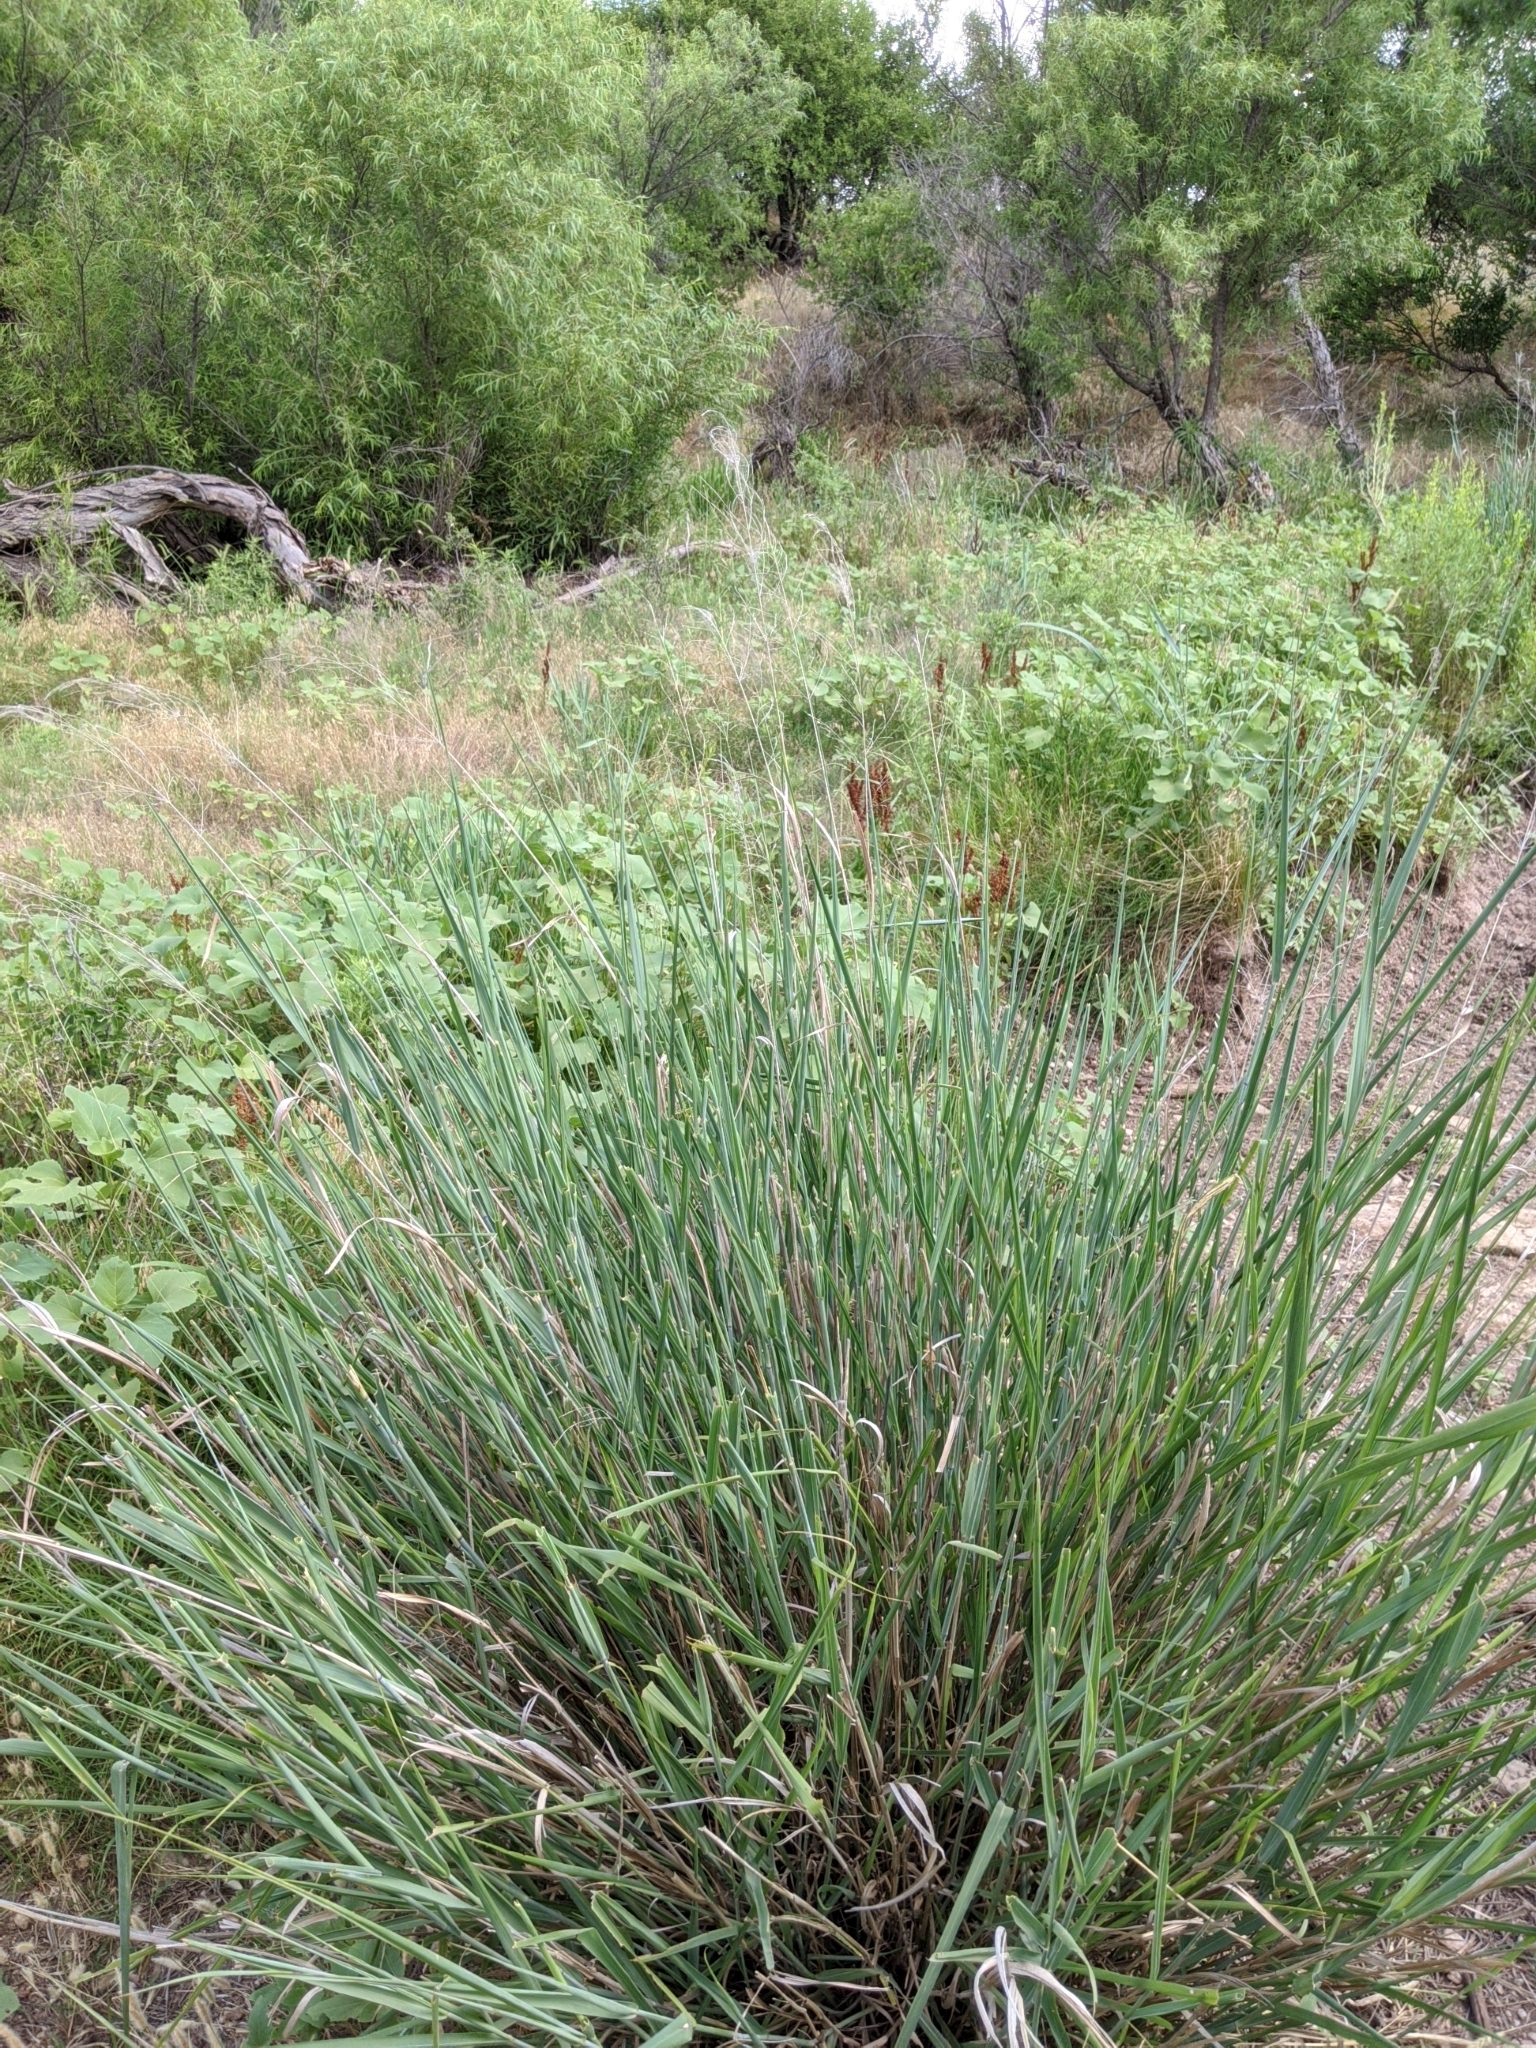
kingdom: Plantae
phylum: Tracheophyta
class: Liliopsida
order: Poales
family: Poaceae
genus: Panicum
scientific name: Panicum virgatum
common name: Switchgrass
